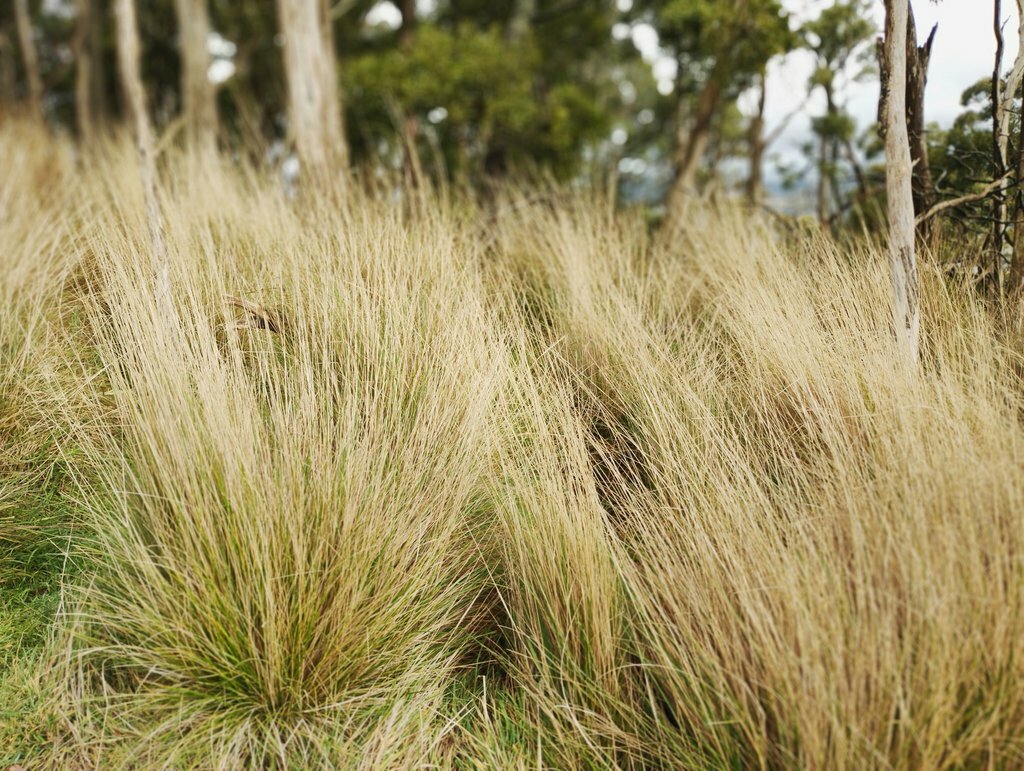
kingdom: Plantae
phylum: Tracheophyta
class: Liliopsida
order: Poales
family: Poaceae
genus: Poa
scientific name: Poa labillardierei
